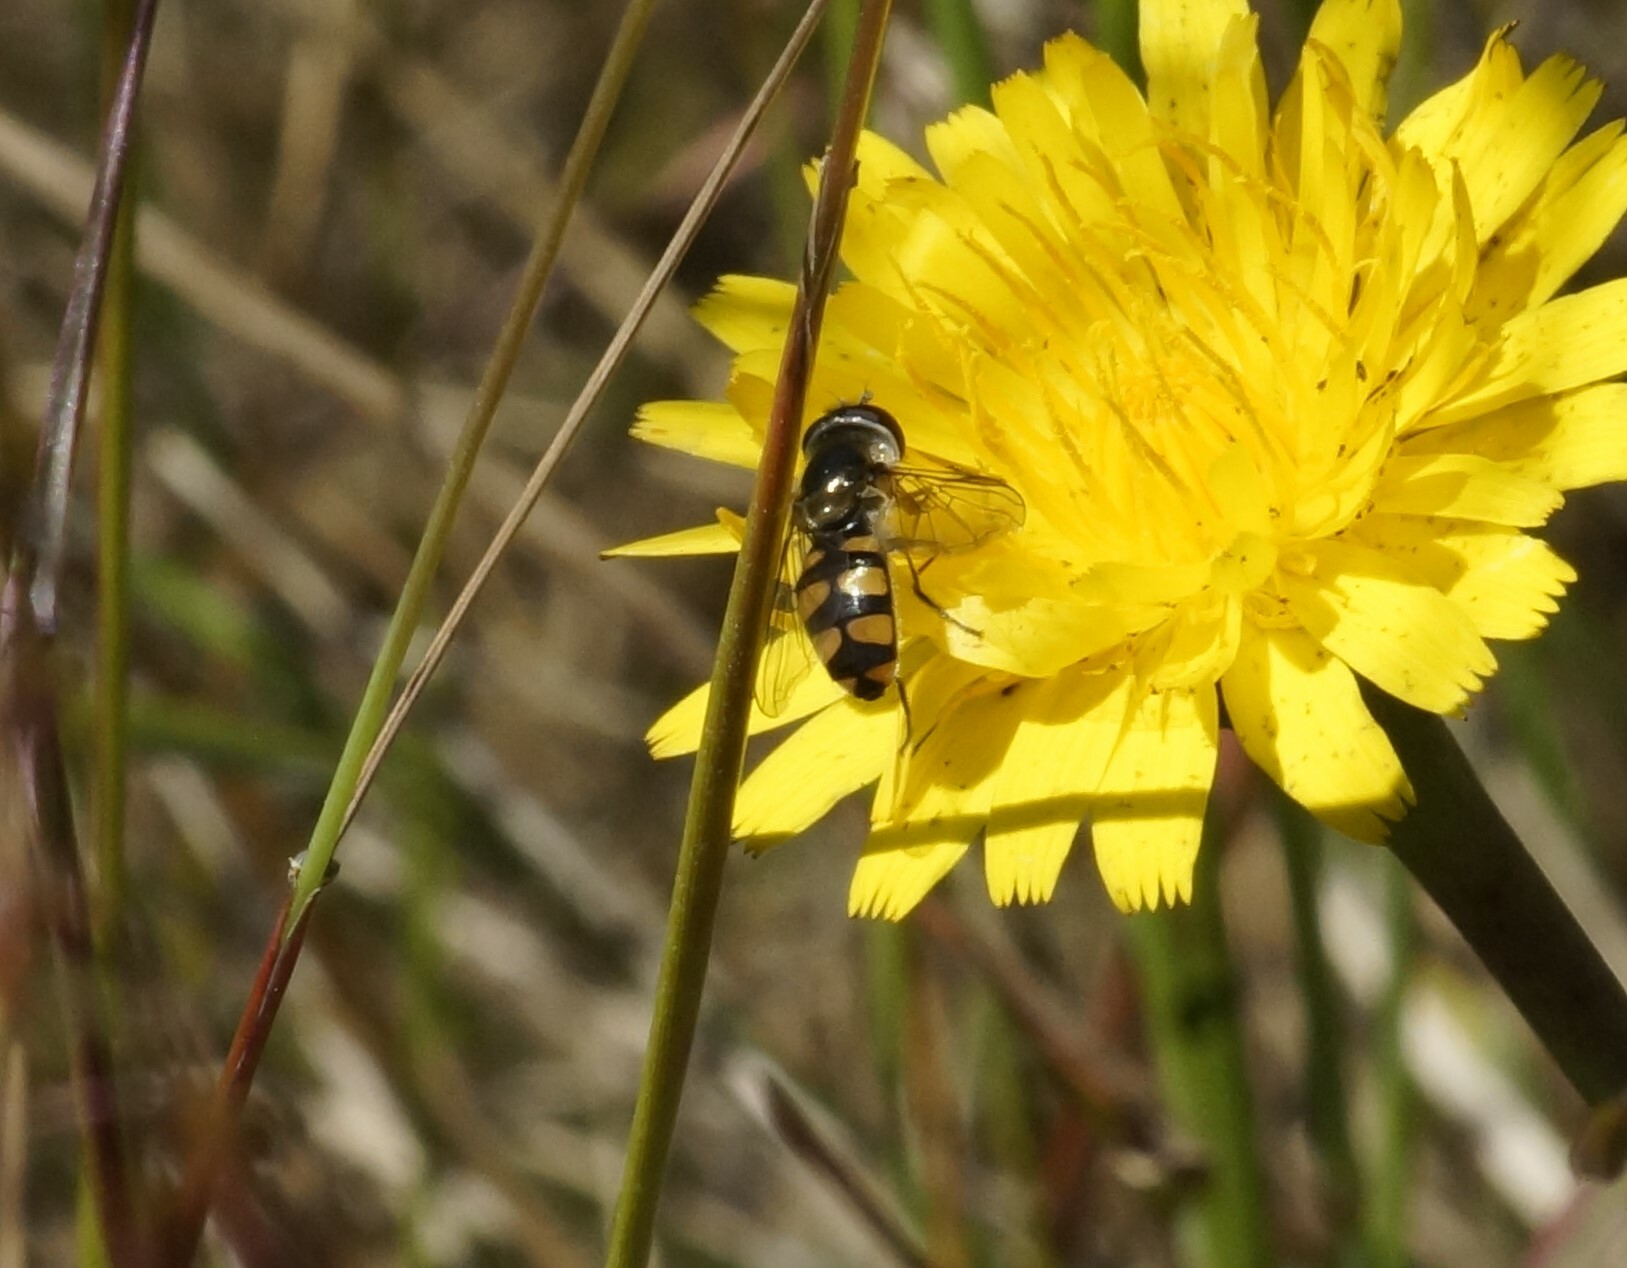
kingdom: Animalia
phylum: Arthropoda
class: Insecta
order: Diptera
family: Syrphidae
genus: Melangyna
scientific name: Melangyna viridiceps
